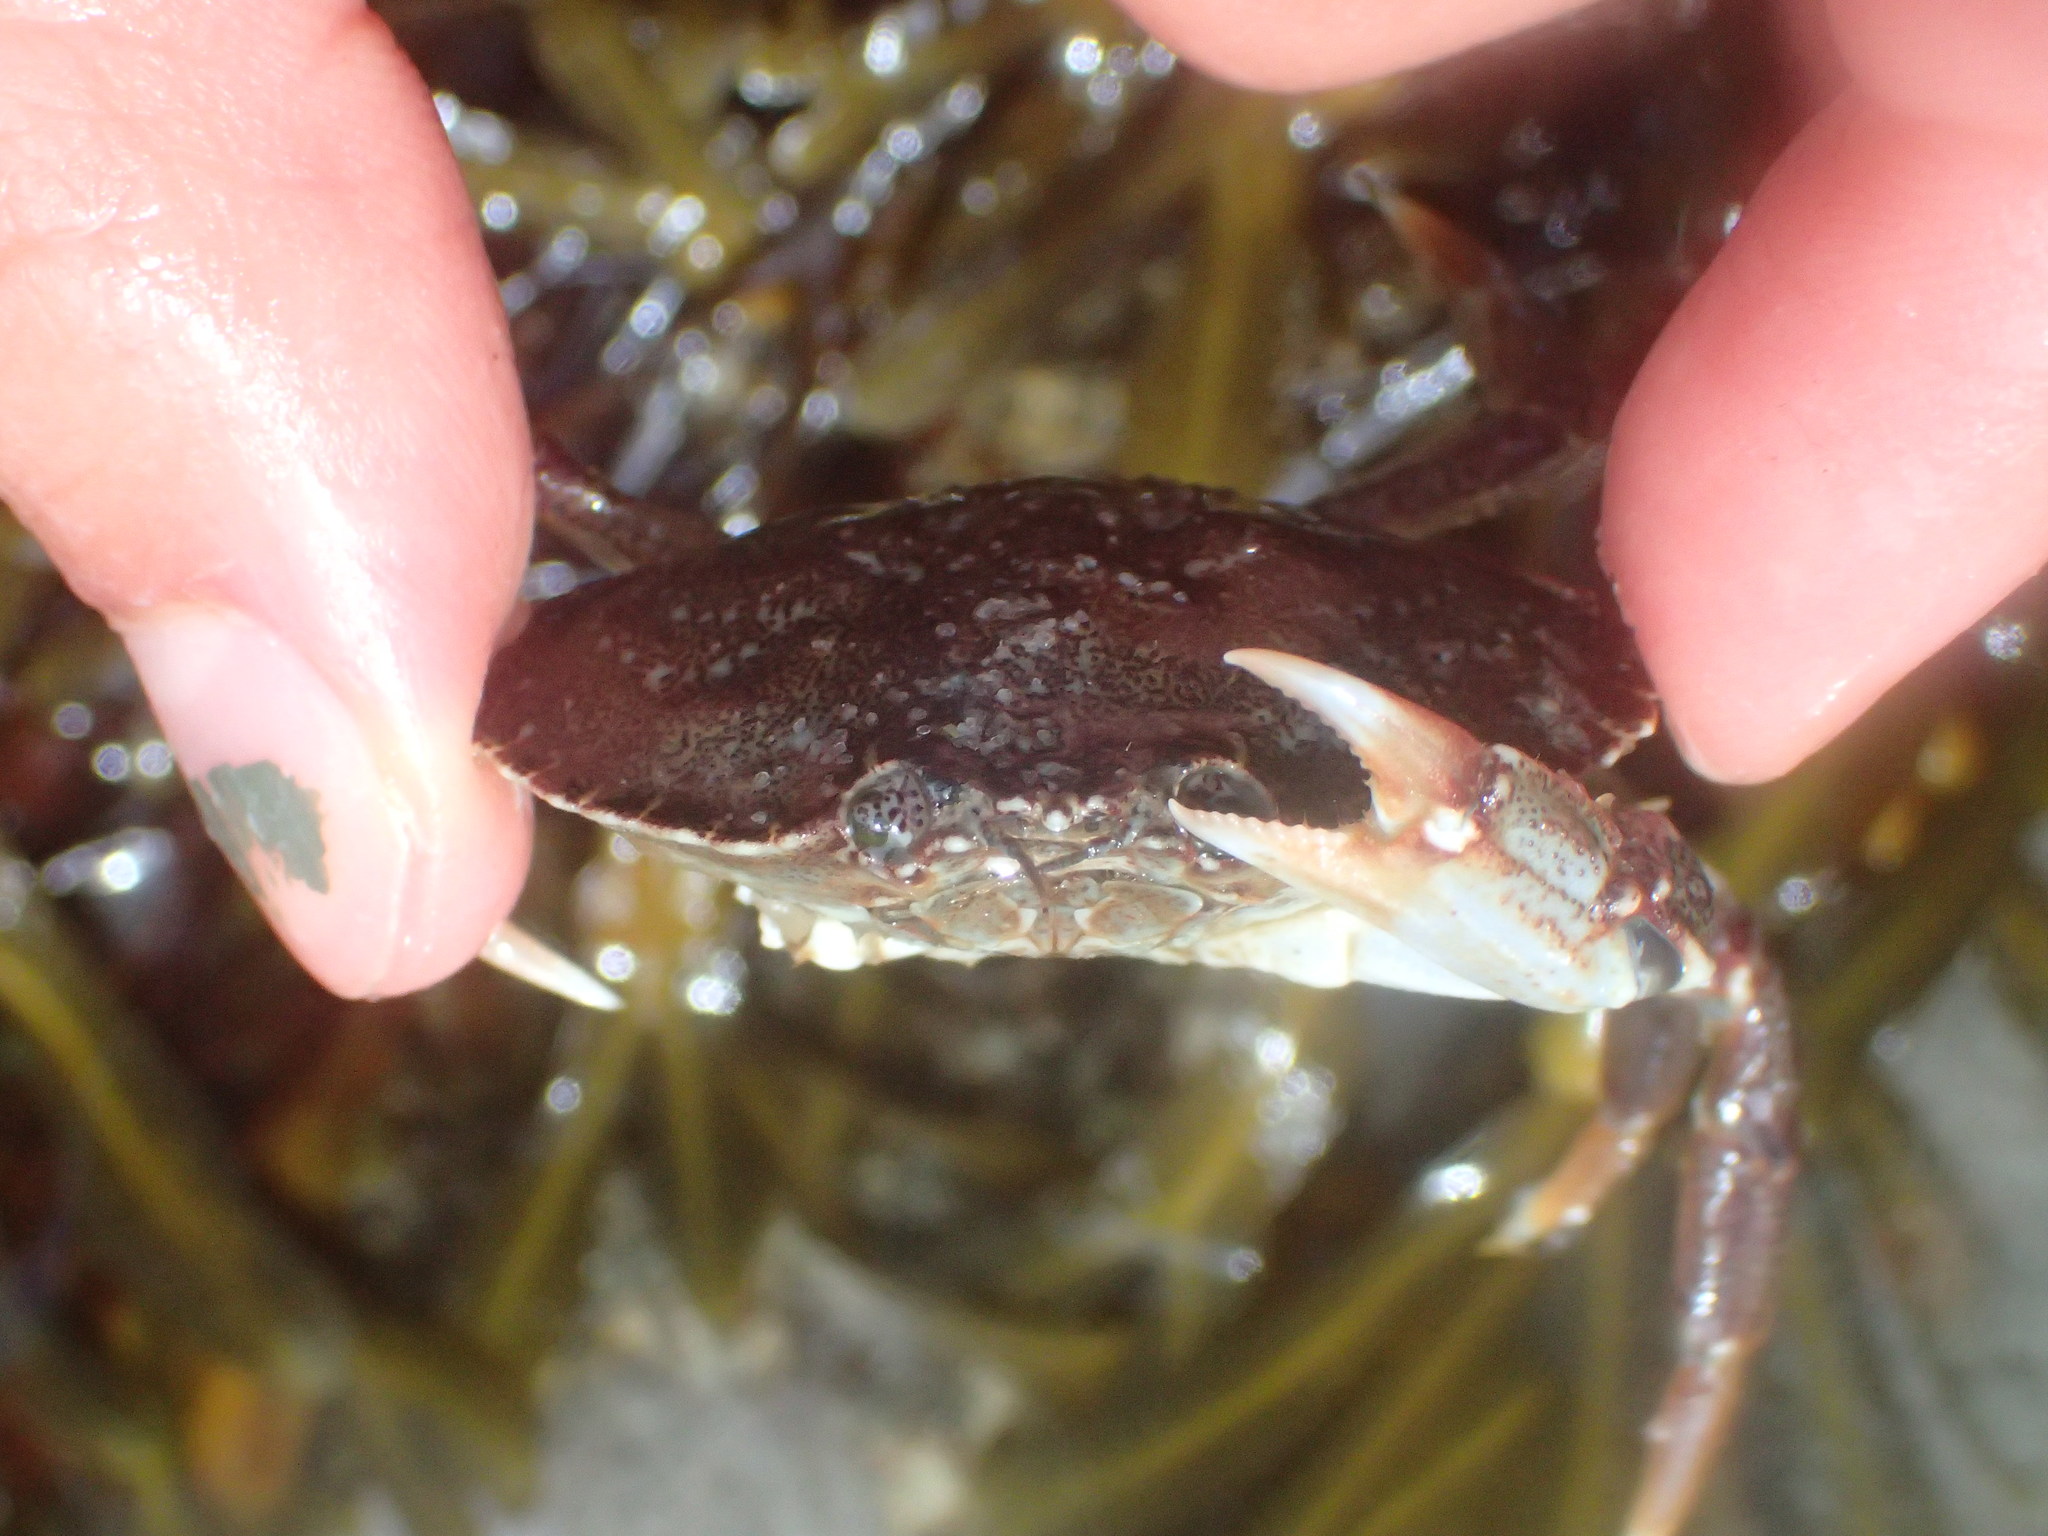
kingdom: Animalia
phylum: Arthropoda
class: Malacostraca
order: Decapoda
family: Cancridae
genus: Cancer
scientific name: Cancer irroratus
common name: Atlantic rock crab
